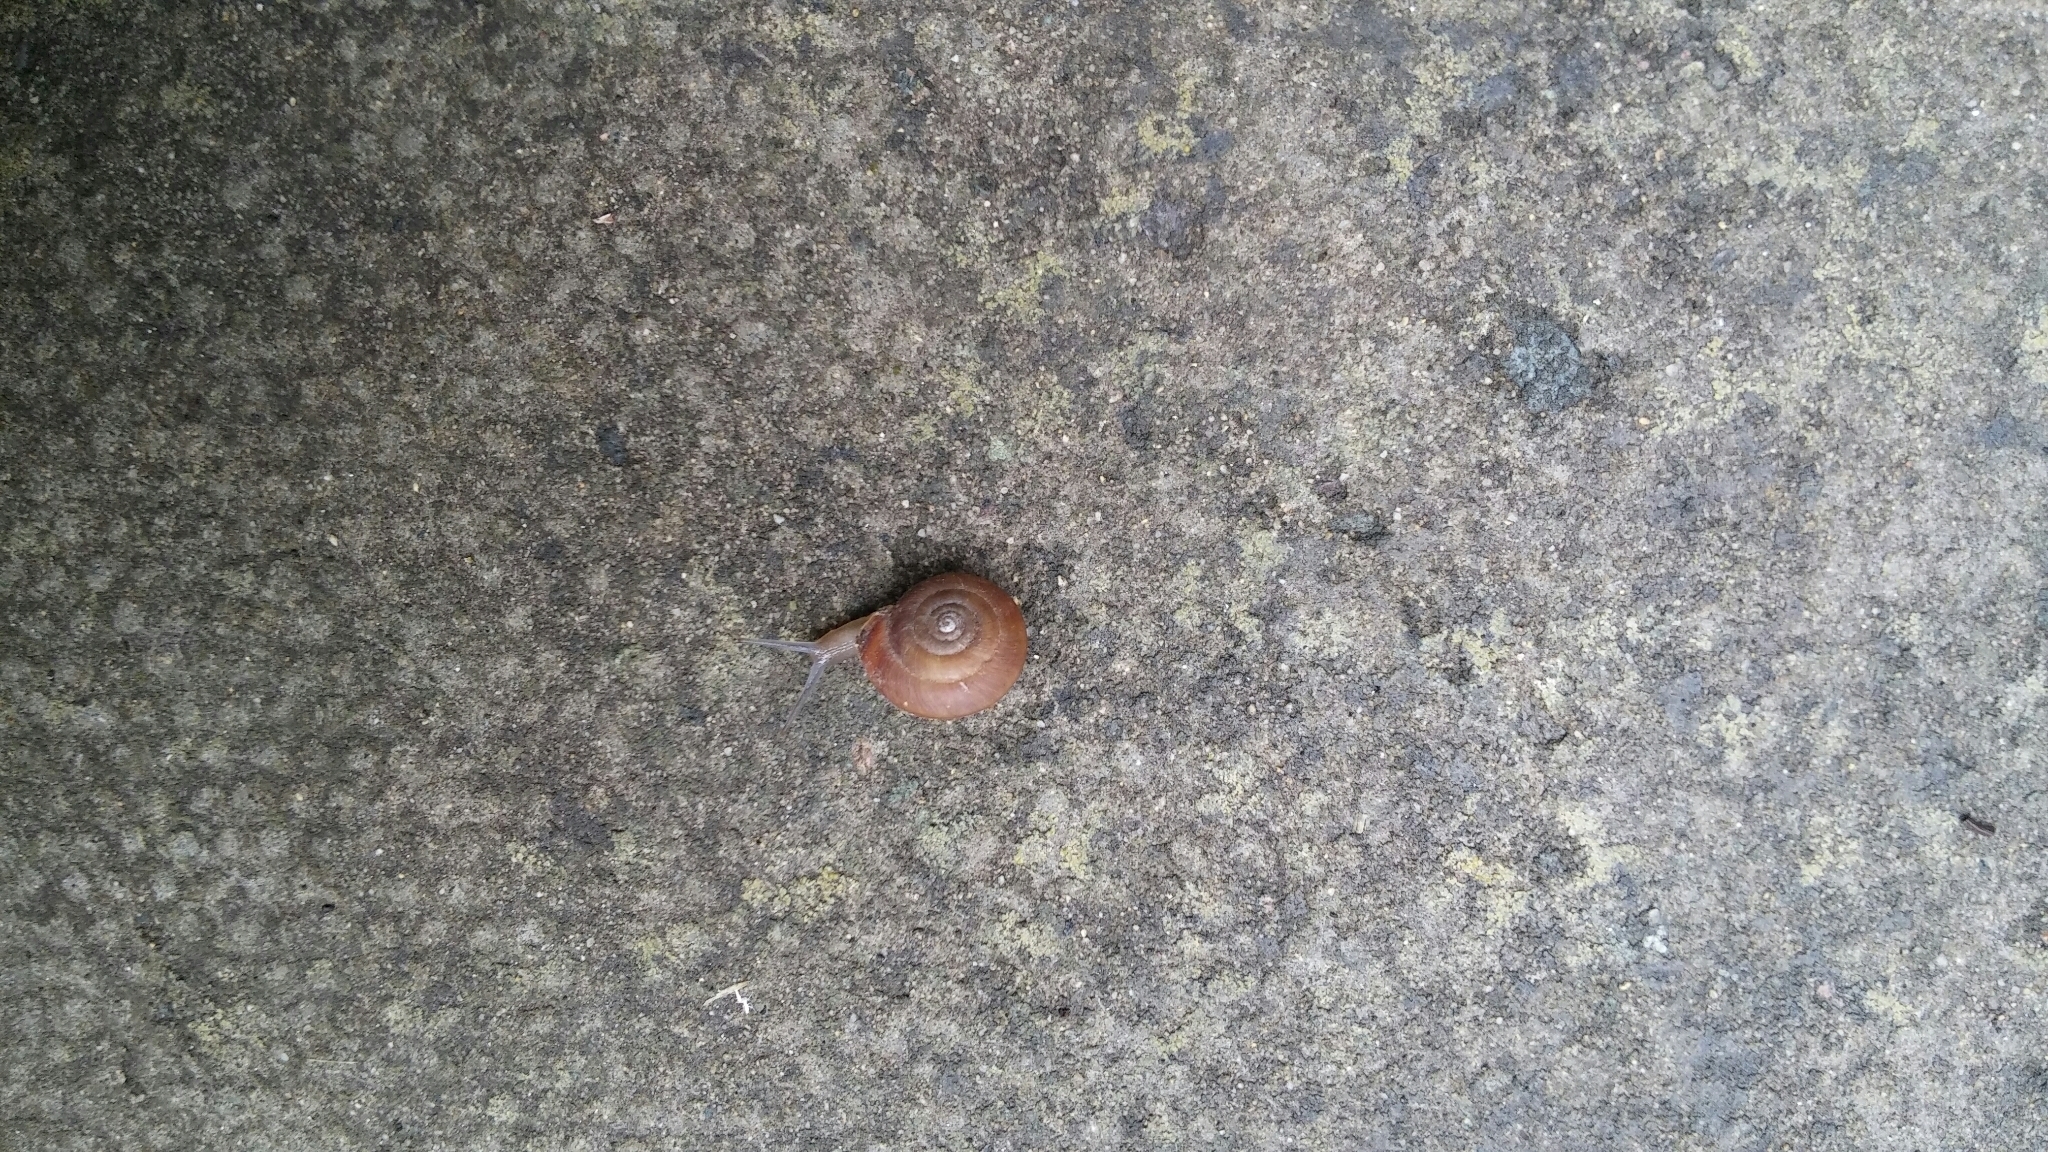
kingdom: Animalia
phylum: Mollusca
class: Gastropoda
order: Stylommatophora
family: Hygromiidae
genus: Trochulus
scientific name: Trochulus striolatus
